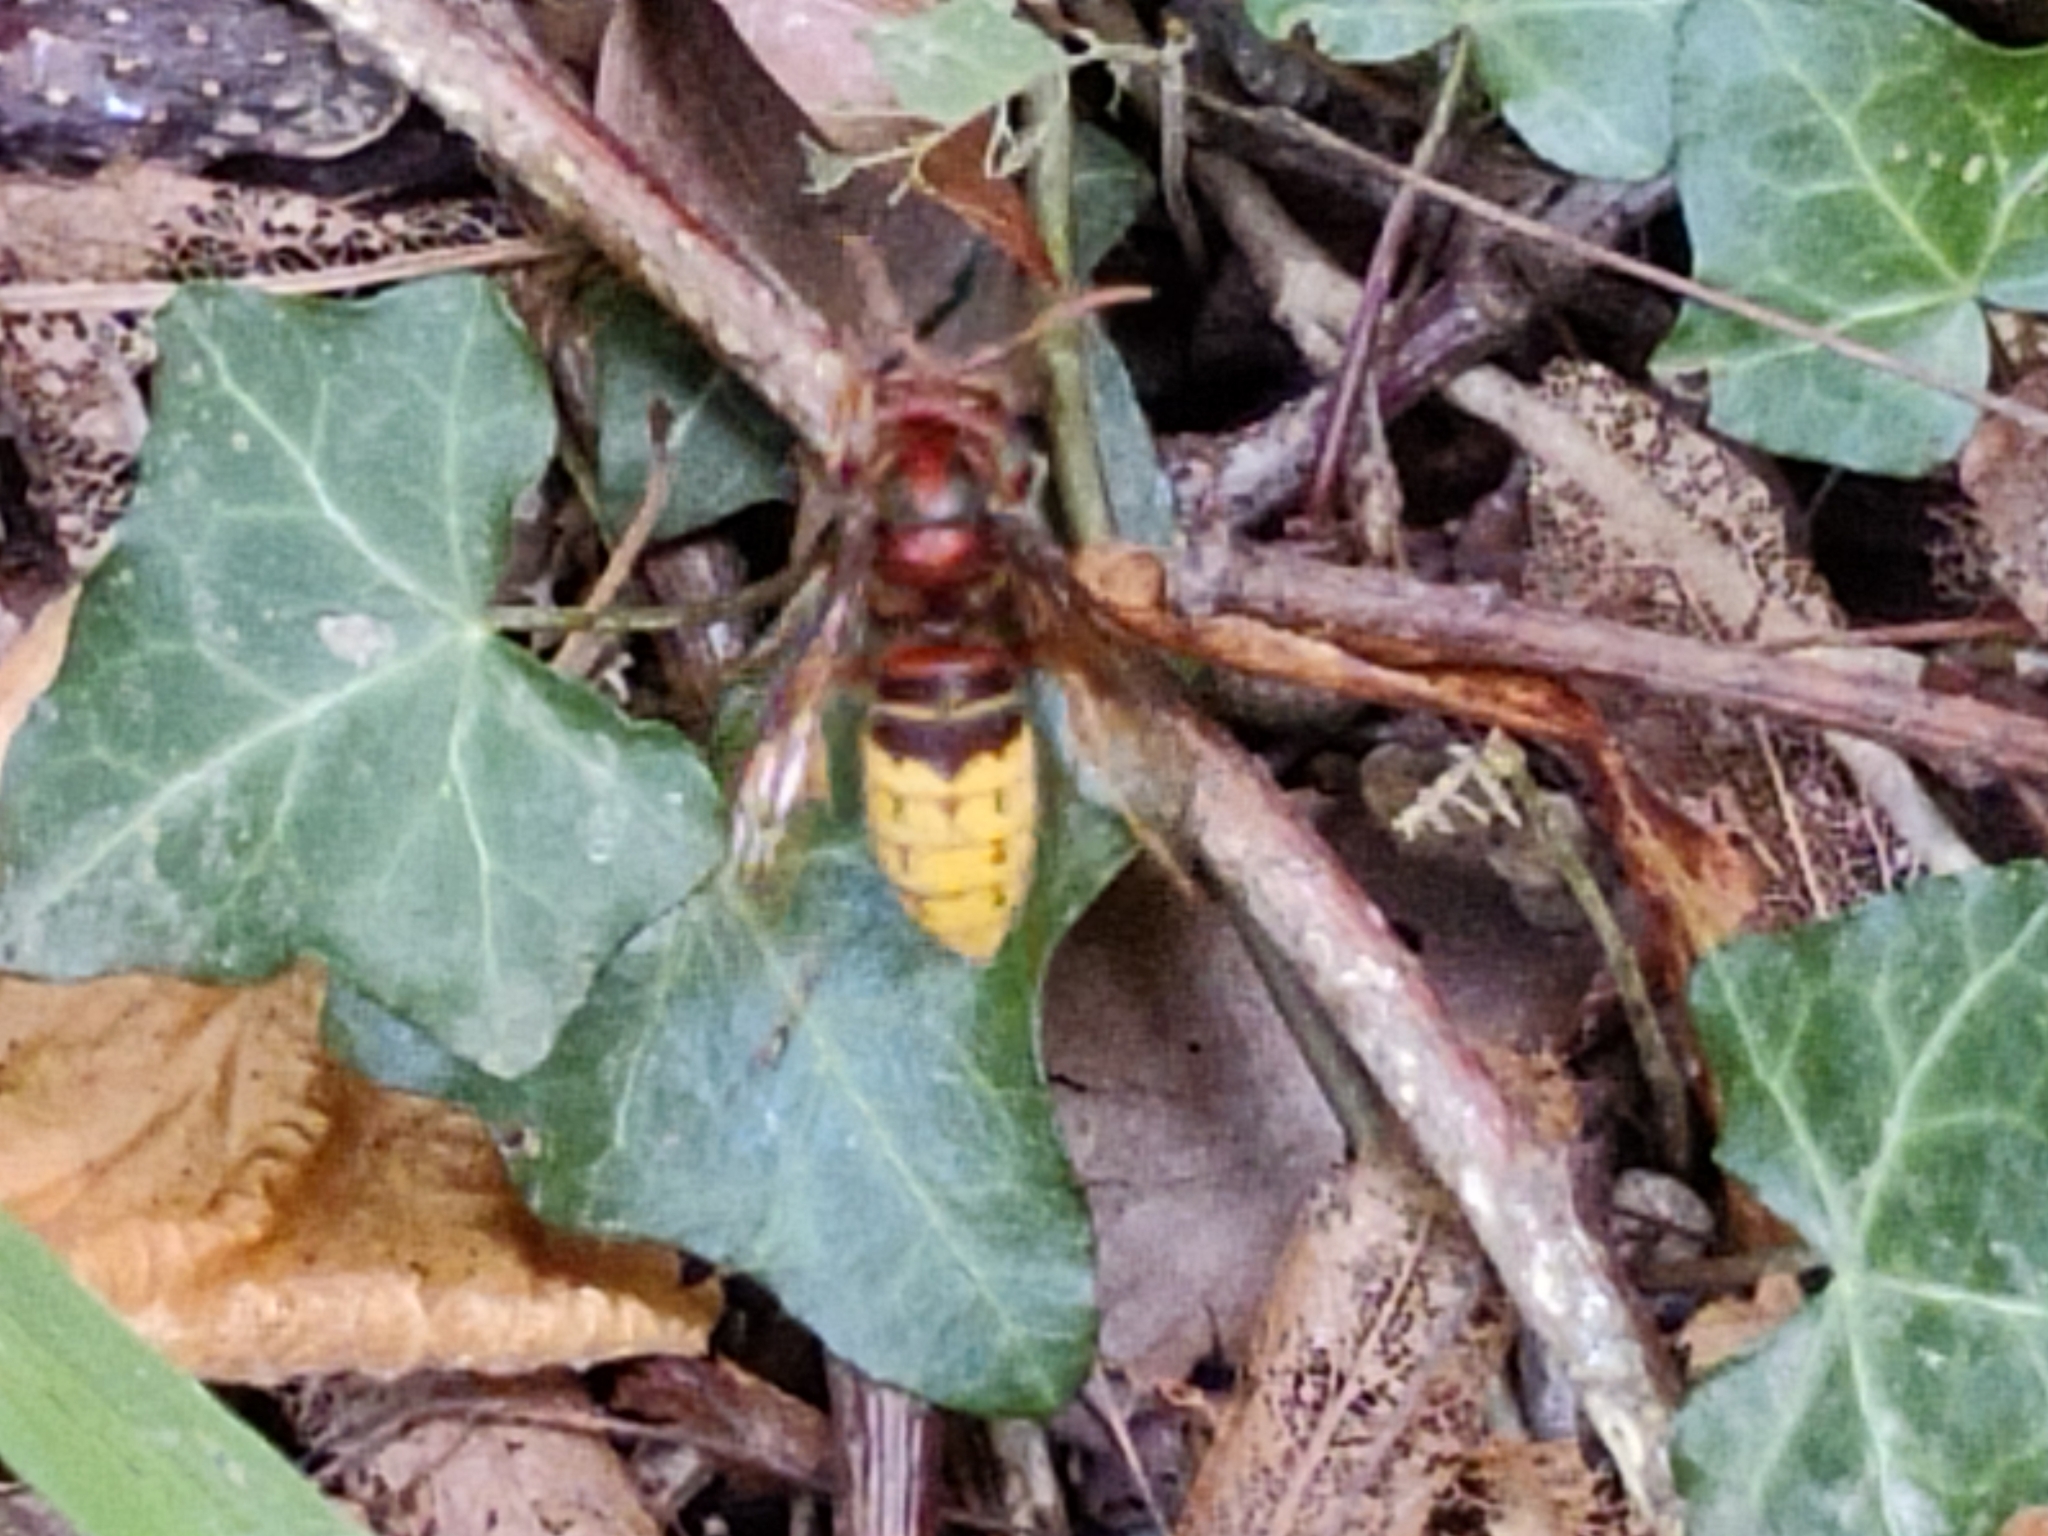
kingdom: Animalia
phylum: Arthropoda
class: Insecta
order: Hymenoptera
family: Vespidae
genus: Vespa
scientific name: Vespa crabro
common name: Hornet
